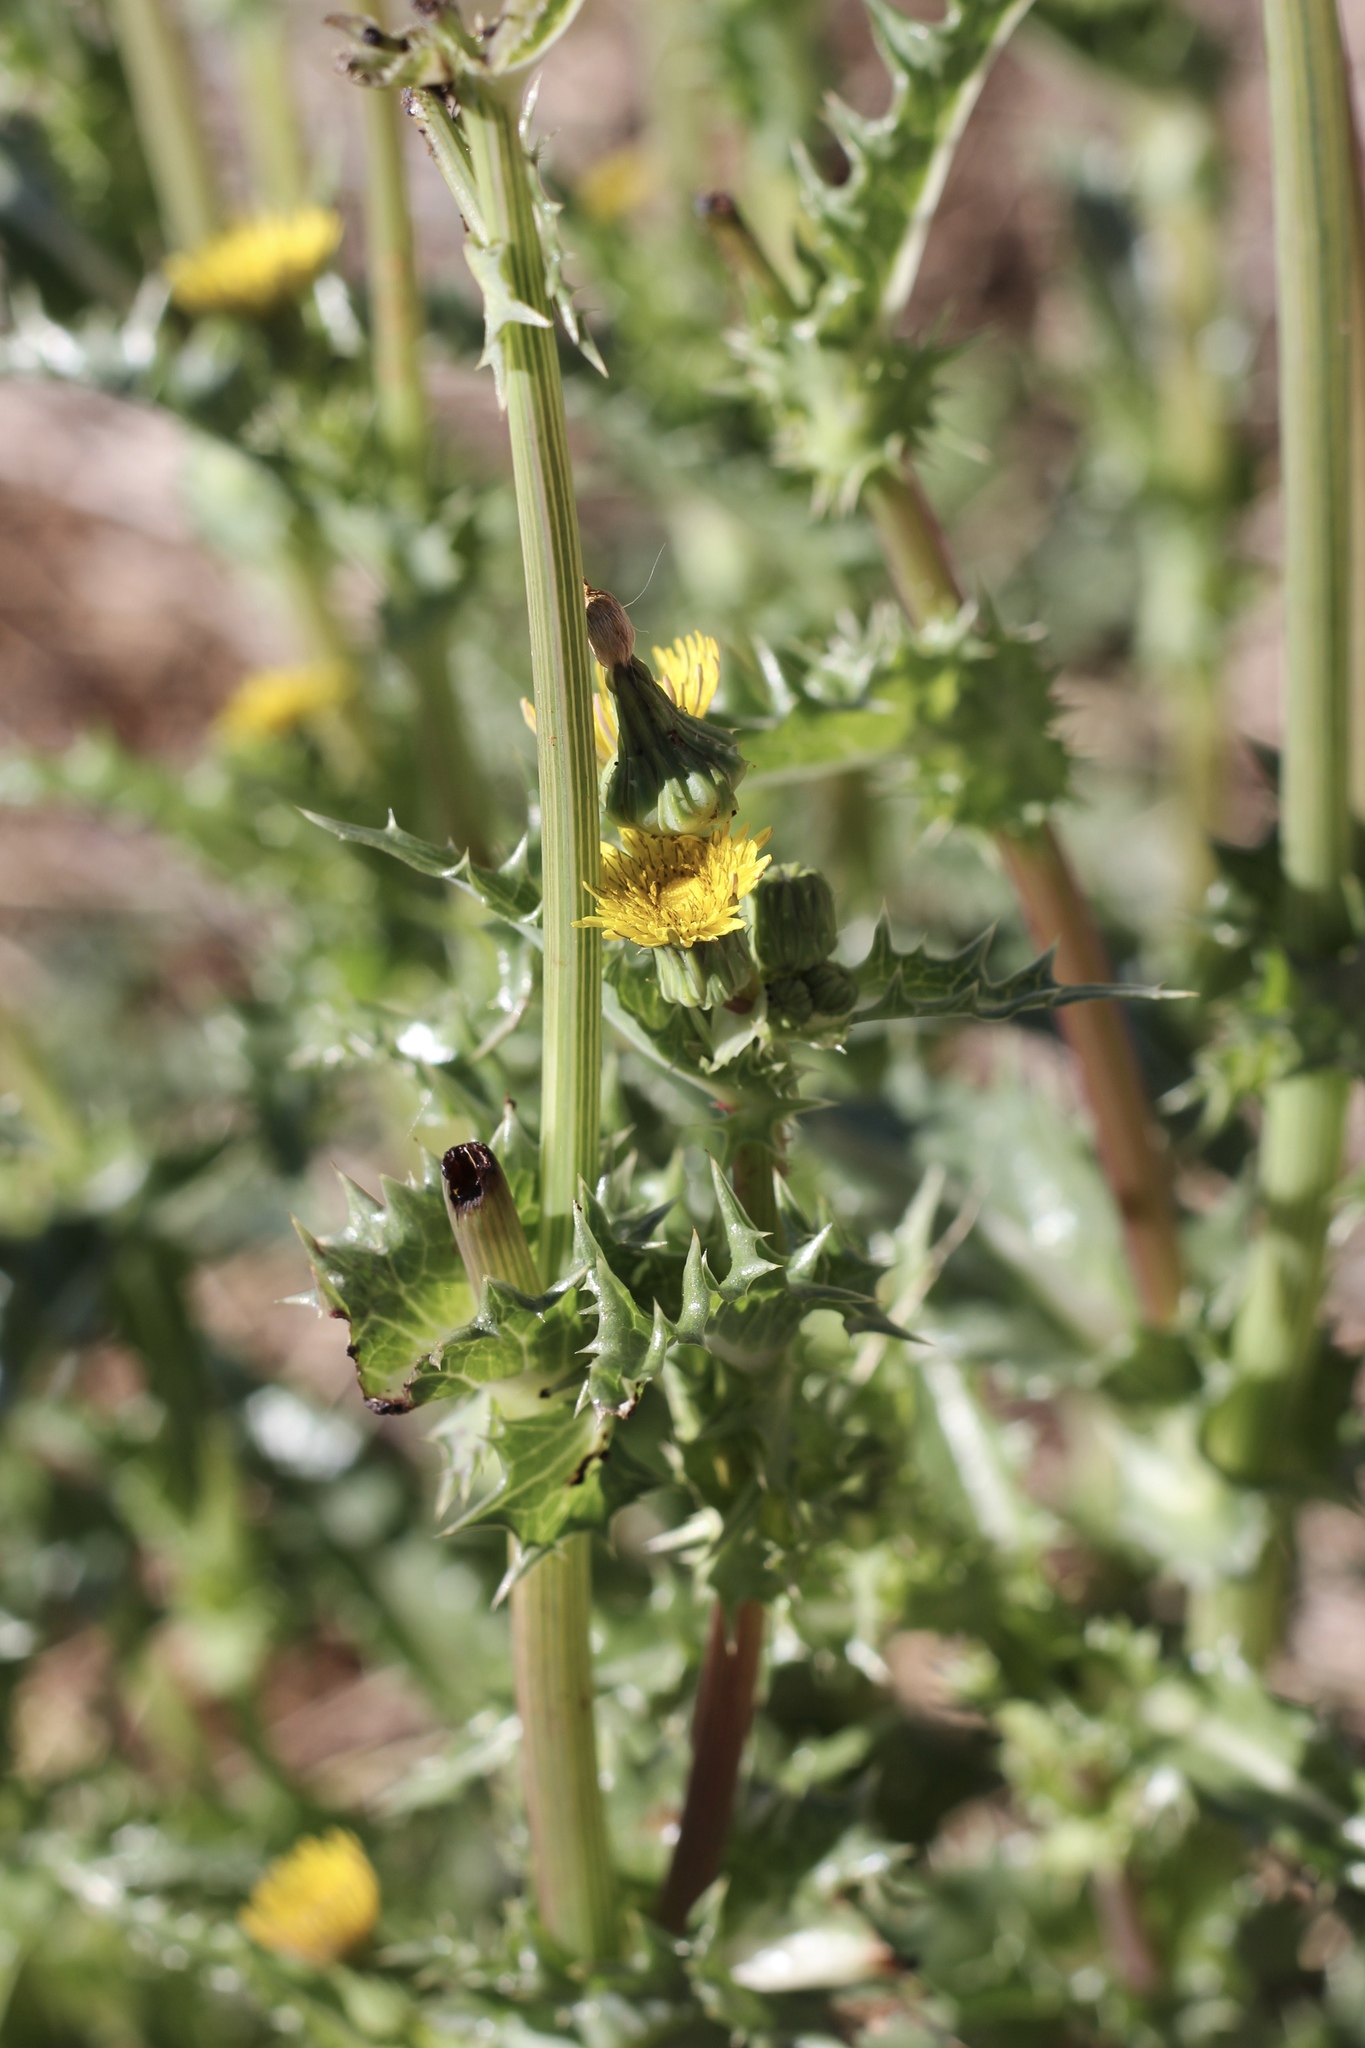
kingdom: Plantae
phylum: Tracheophyta
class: Magnoliopsida
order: Asterales
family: Asteraceae
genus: Sonchus
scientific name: Sonchus asper
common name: Prickly sow-thistle
